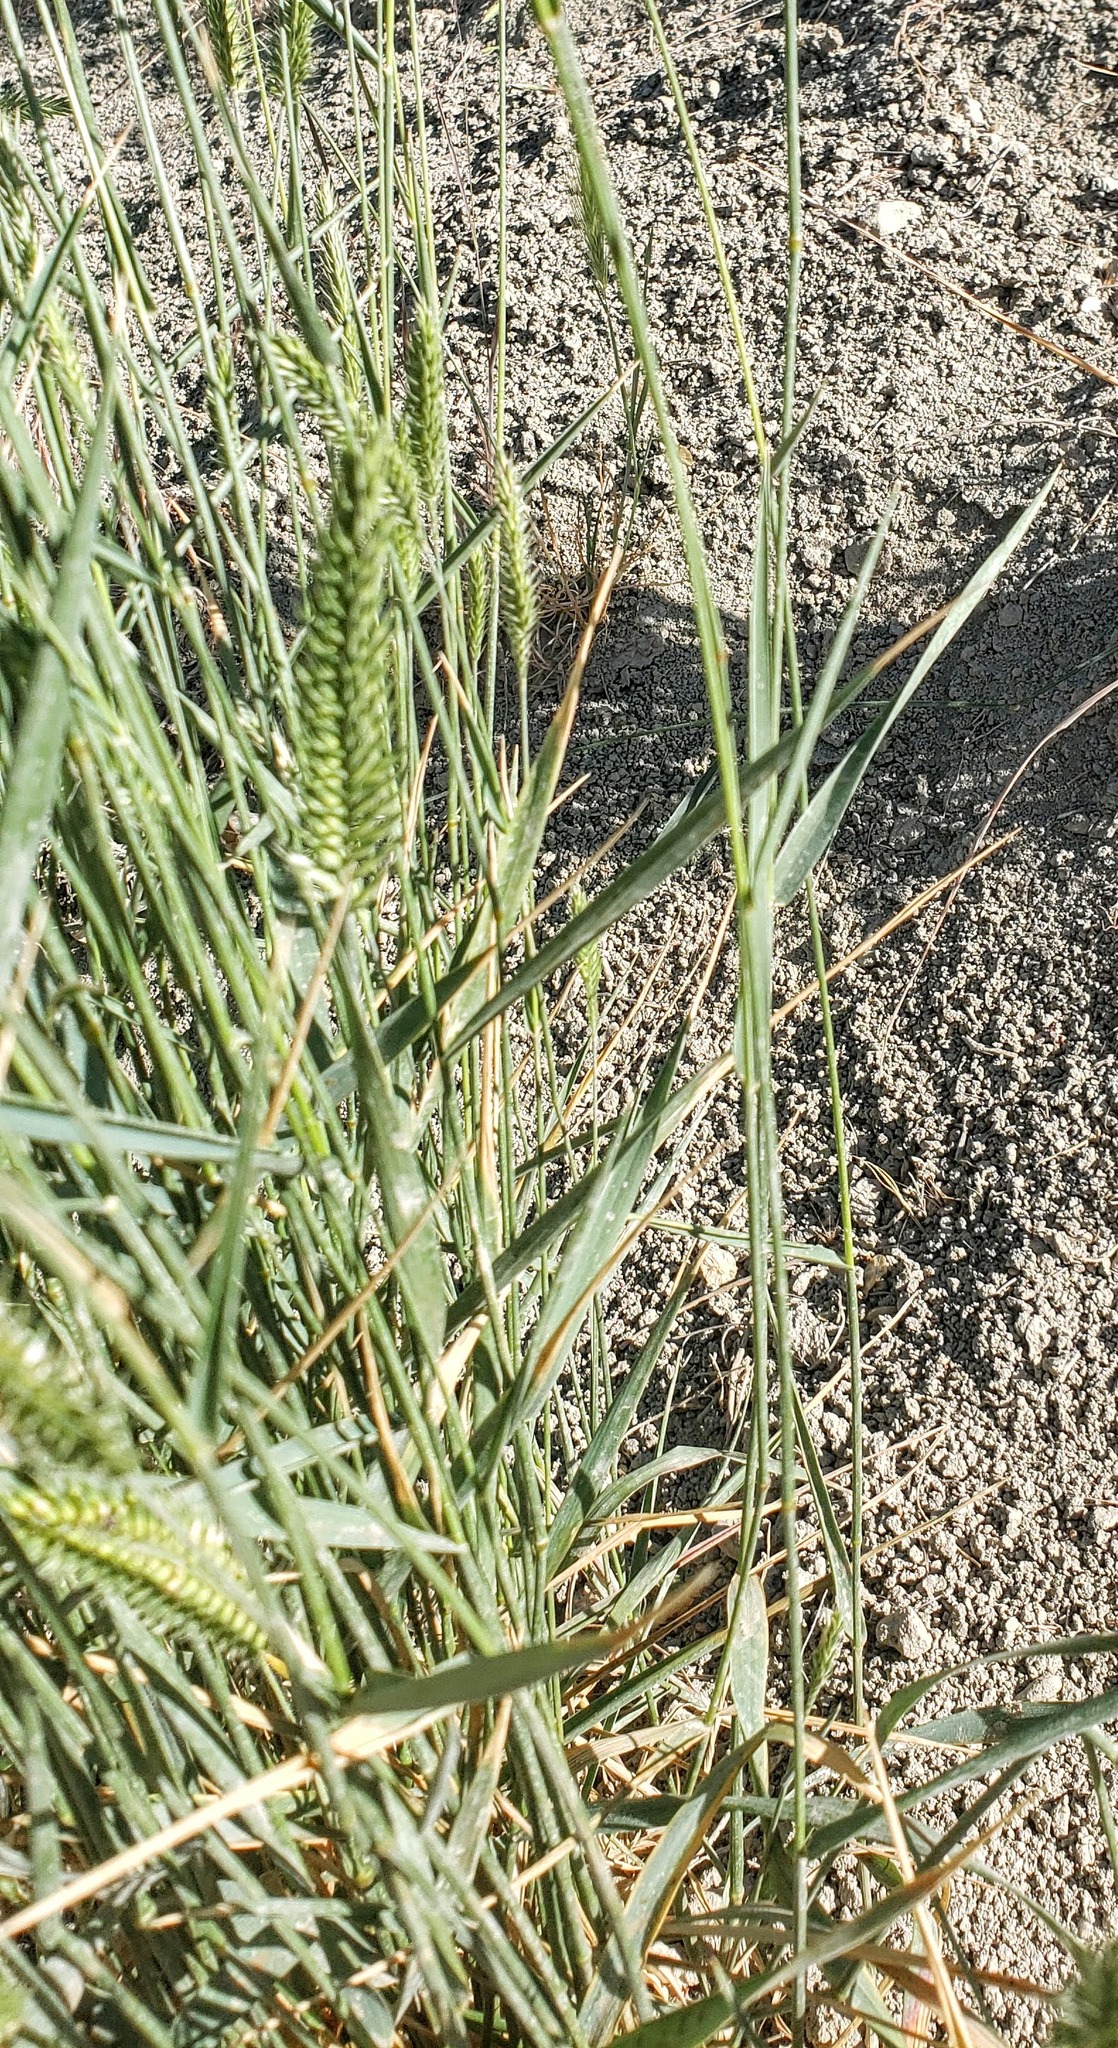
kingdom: Plantae
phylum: Tracheophyta
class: Liliopsida
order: Poales
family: Poaceae
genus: Agropyron
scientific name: Agropyron cristatum
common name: Crested wheatgrass
